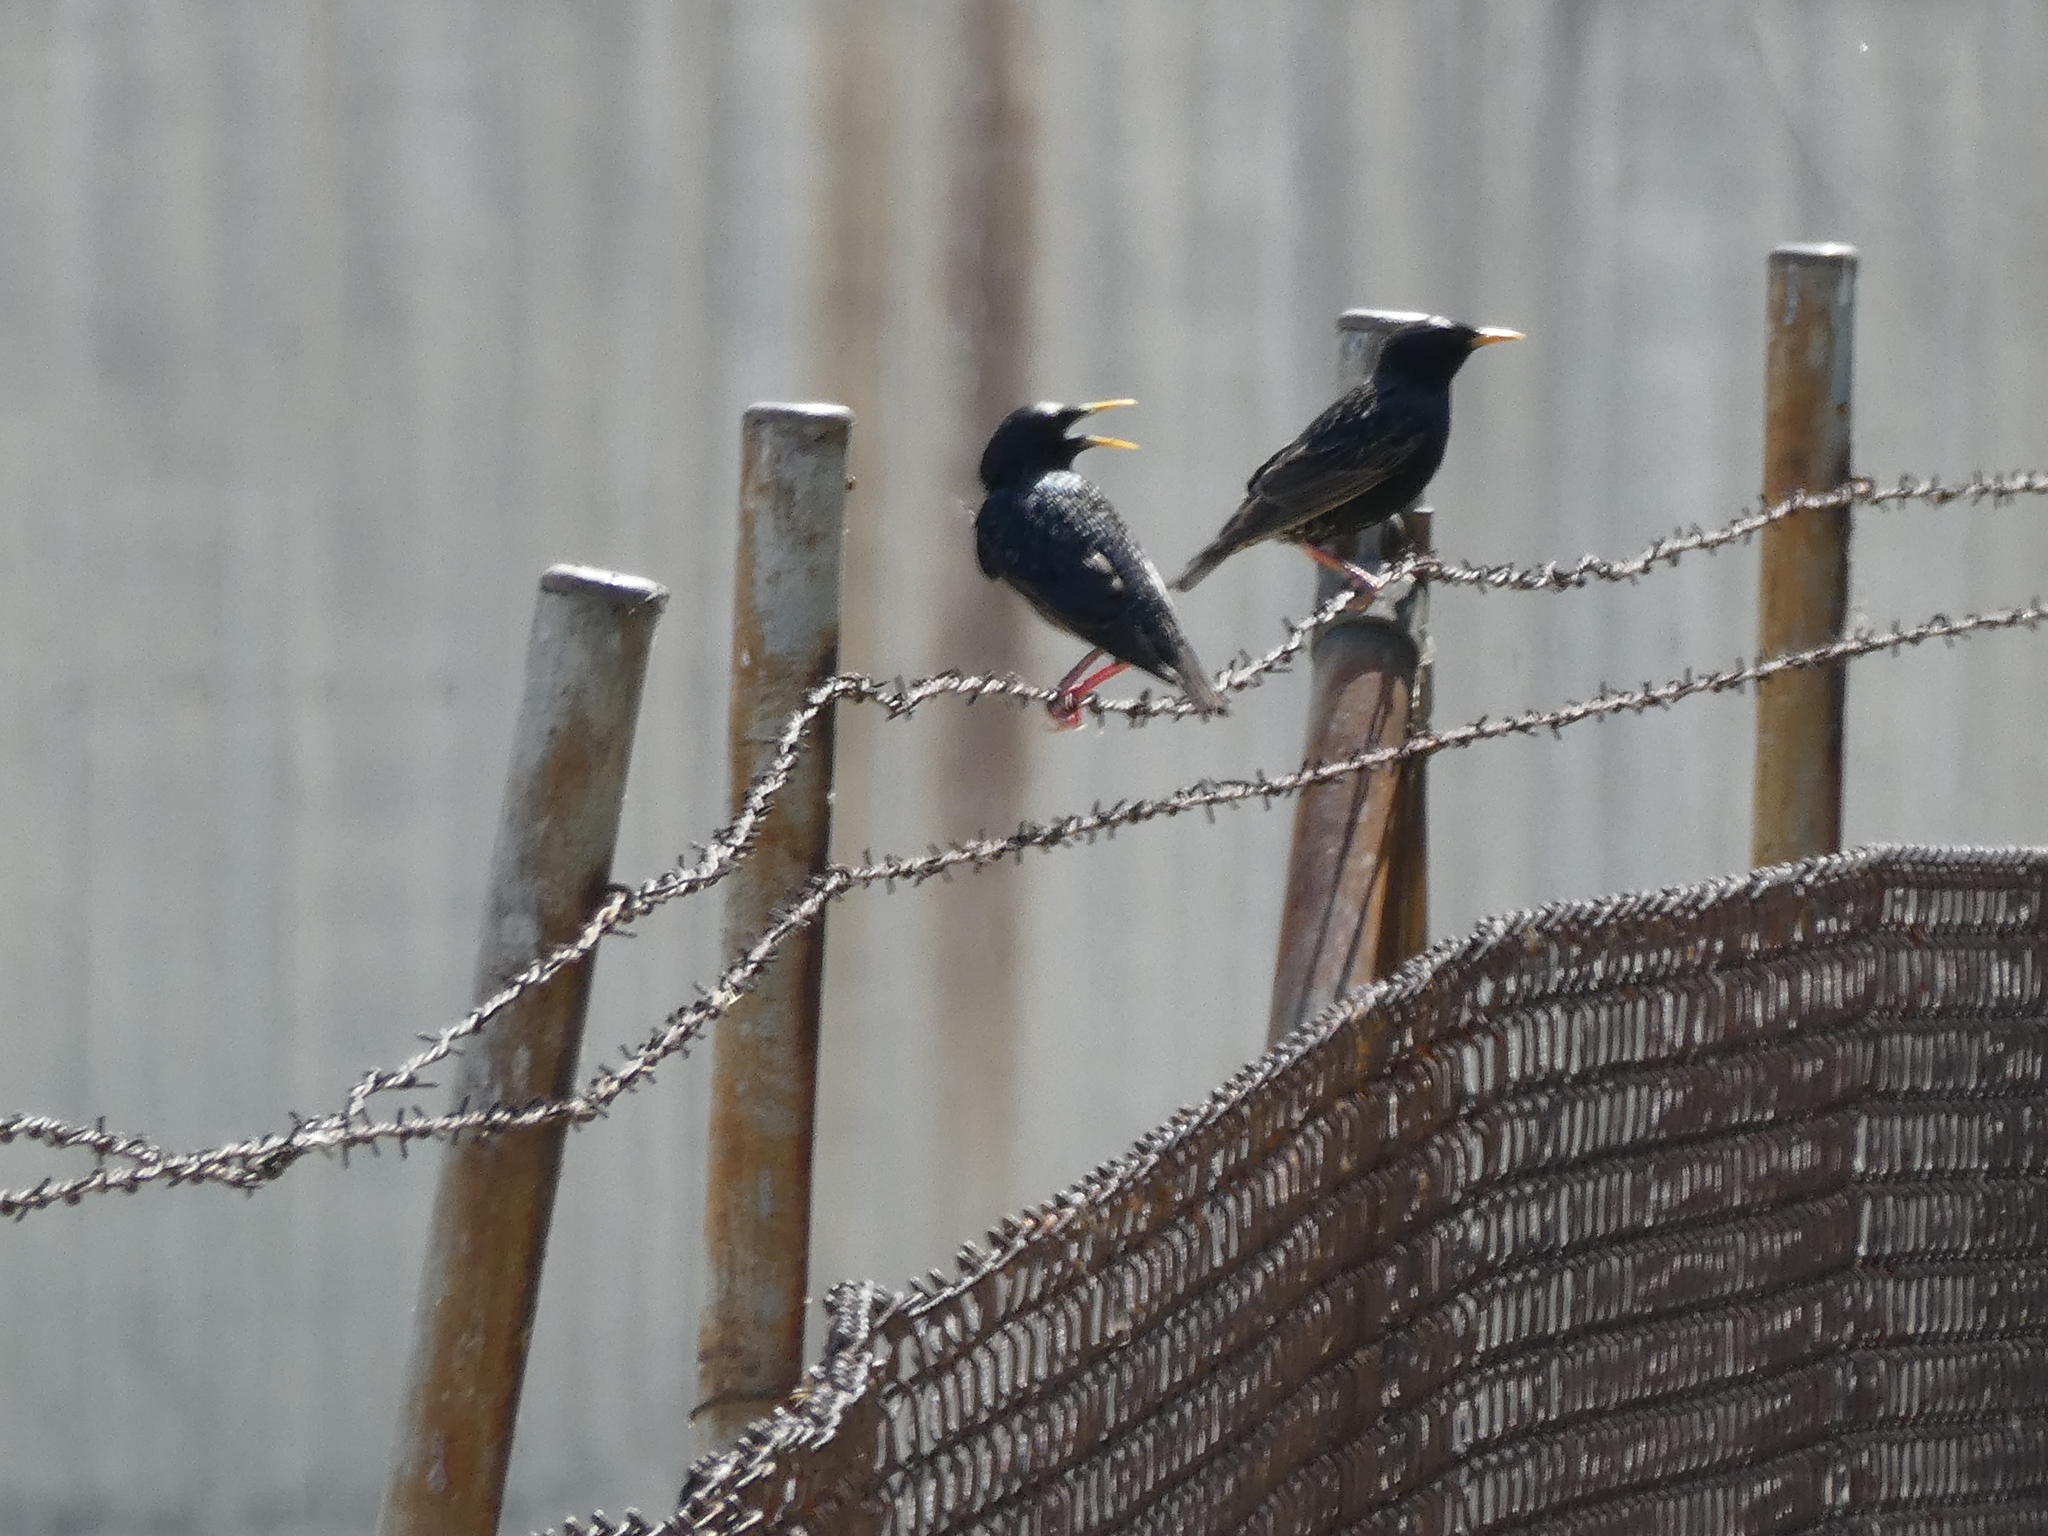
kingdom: Animalia
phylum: Chordata
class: Aves
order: Passeriformes
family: Sturnidae
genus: Sturnus
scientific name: Sturnus vulgaris
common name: Common starling
